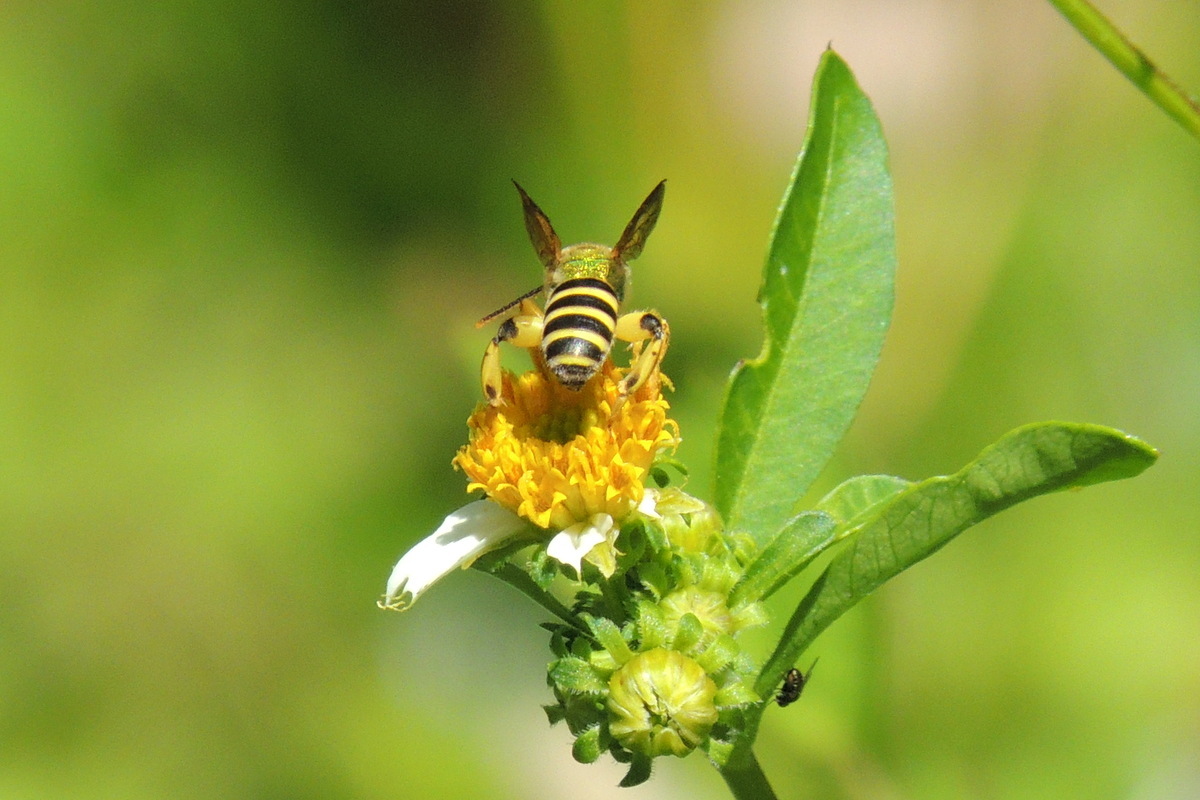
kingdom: Animalia
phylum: Arthropoda
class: Insecta
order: Hymenoptera
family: Halictidae
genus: Agapostemon
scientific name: Agapostemon splendens
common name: Brown-winged striped sweat bee
